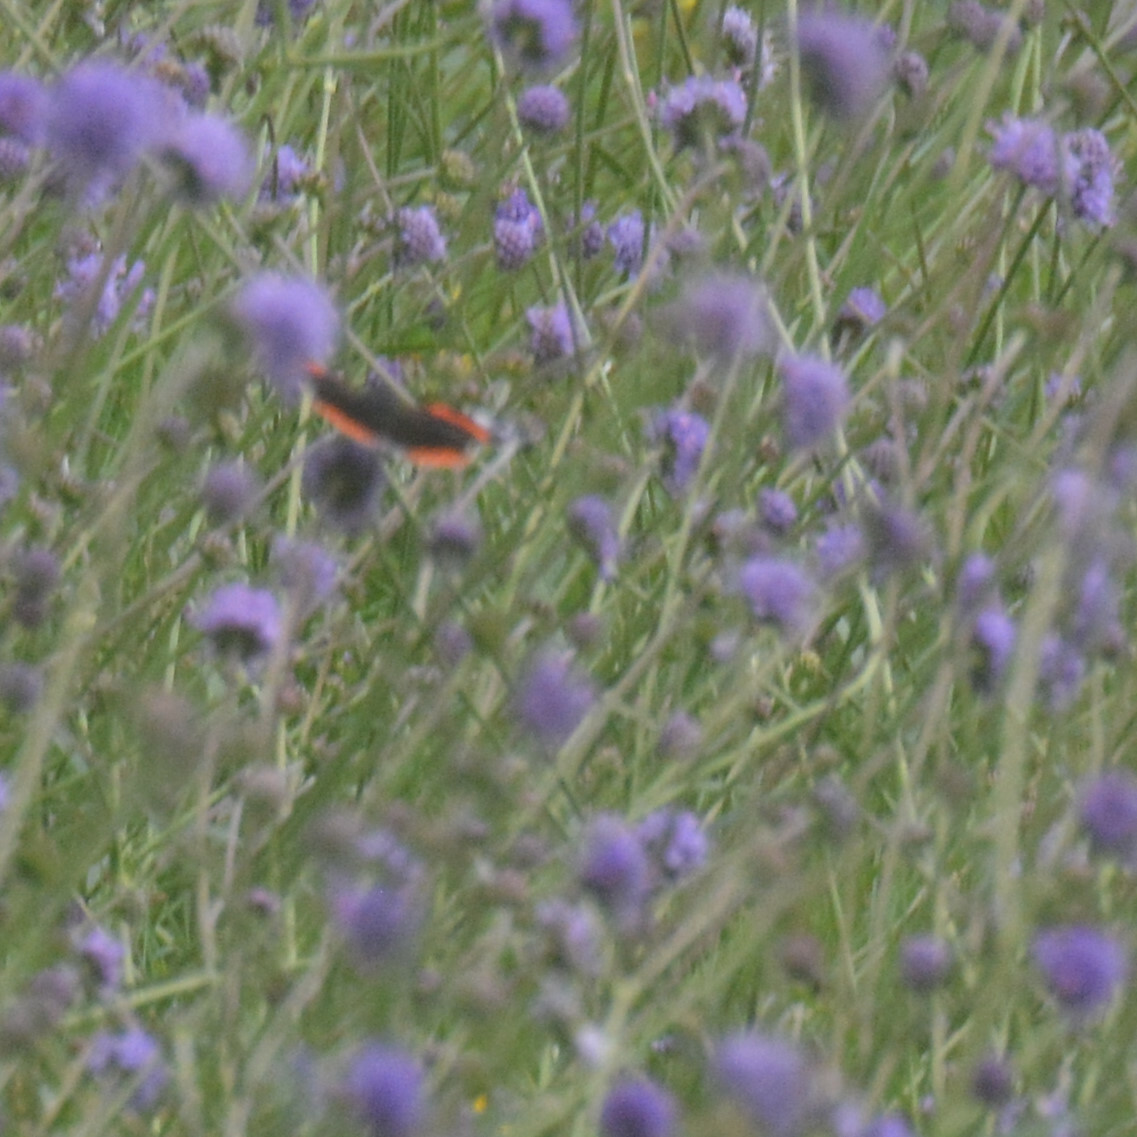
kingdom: Animalia
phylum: Arthropoda
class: Insecta
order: Lepidoptera
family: Nymphalidae
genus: Vanessa
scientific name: Vanessa atalanta
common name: Red admiral
